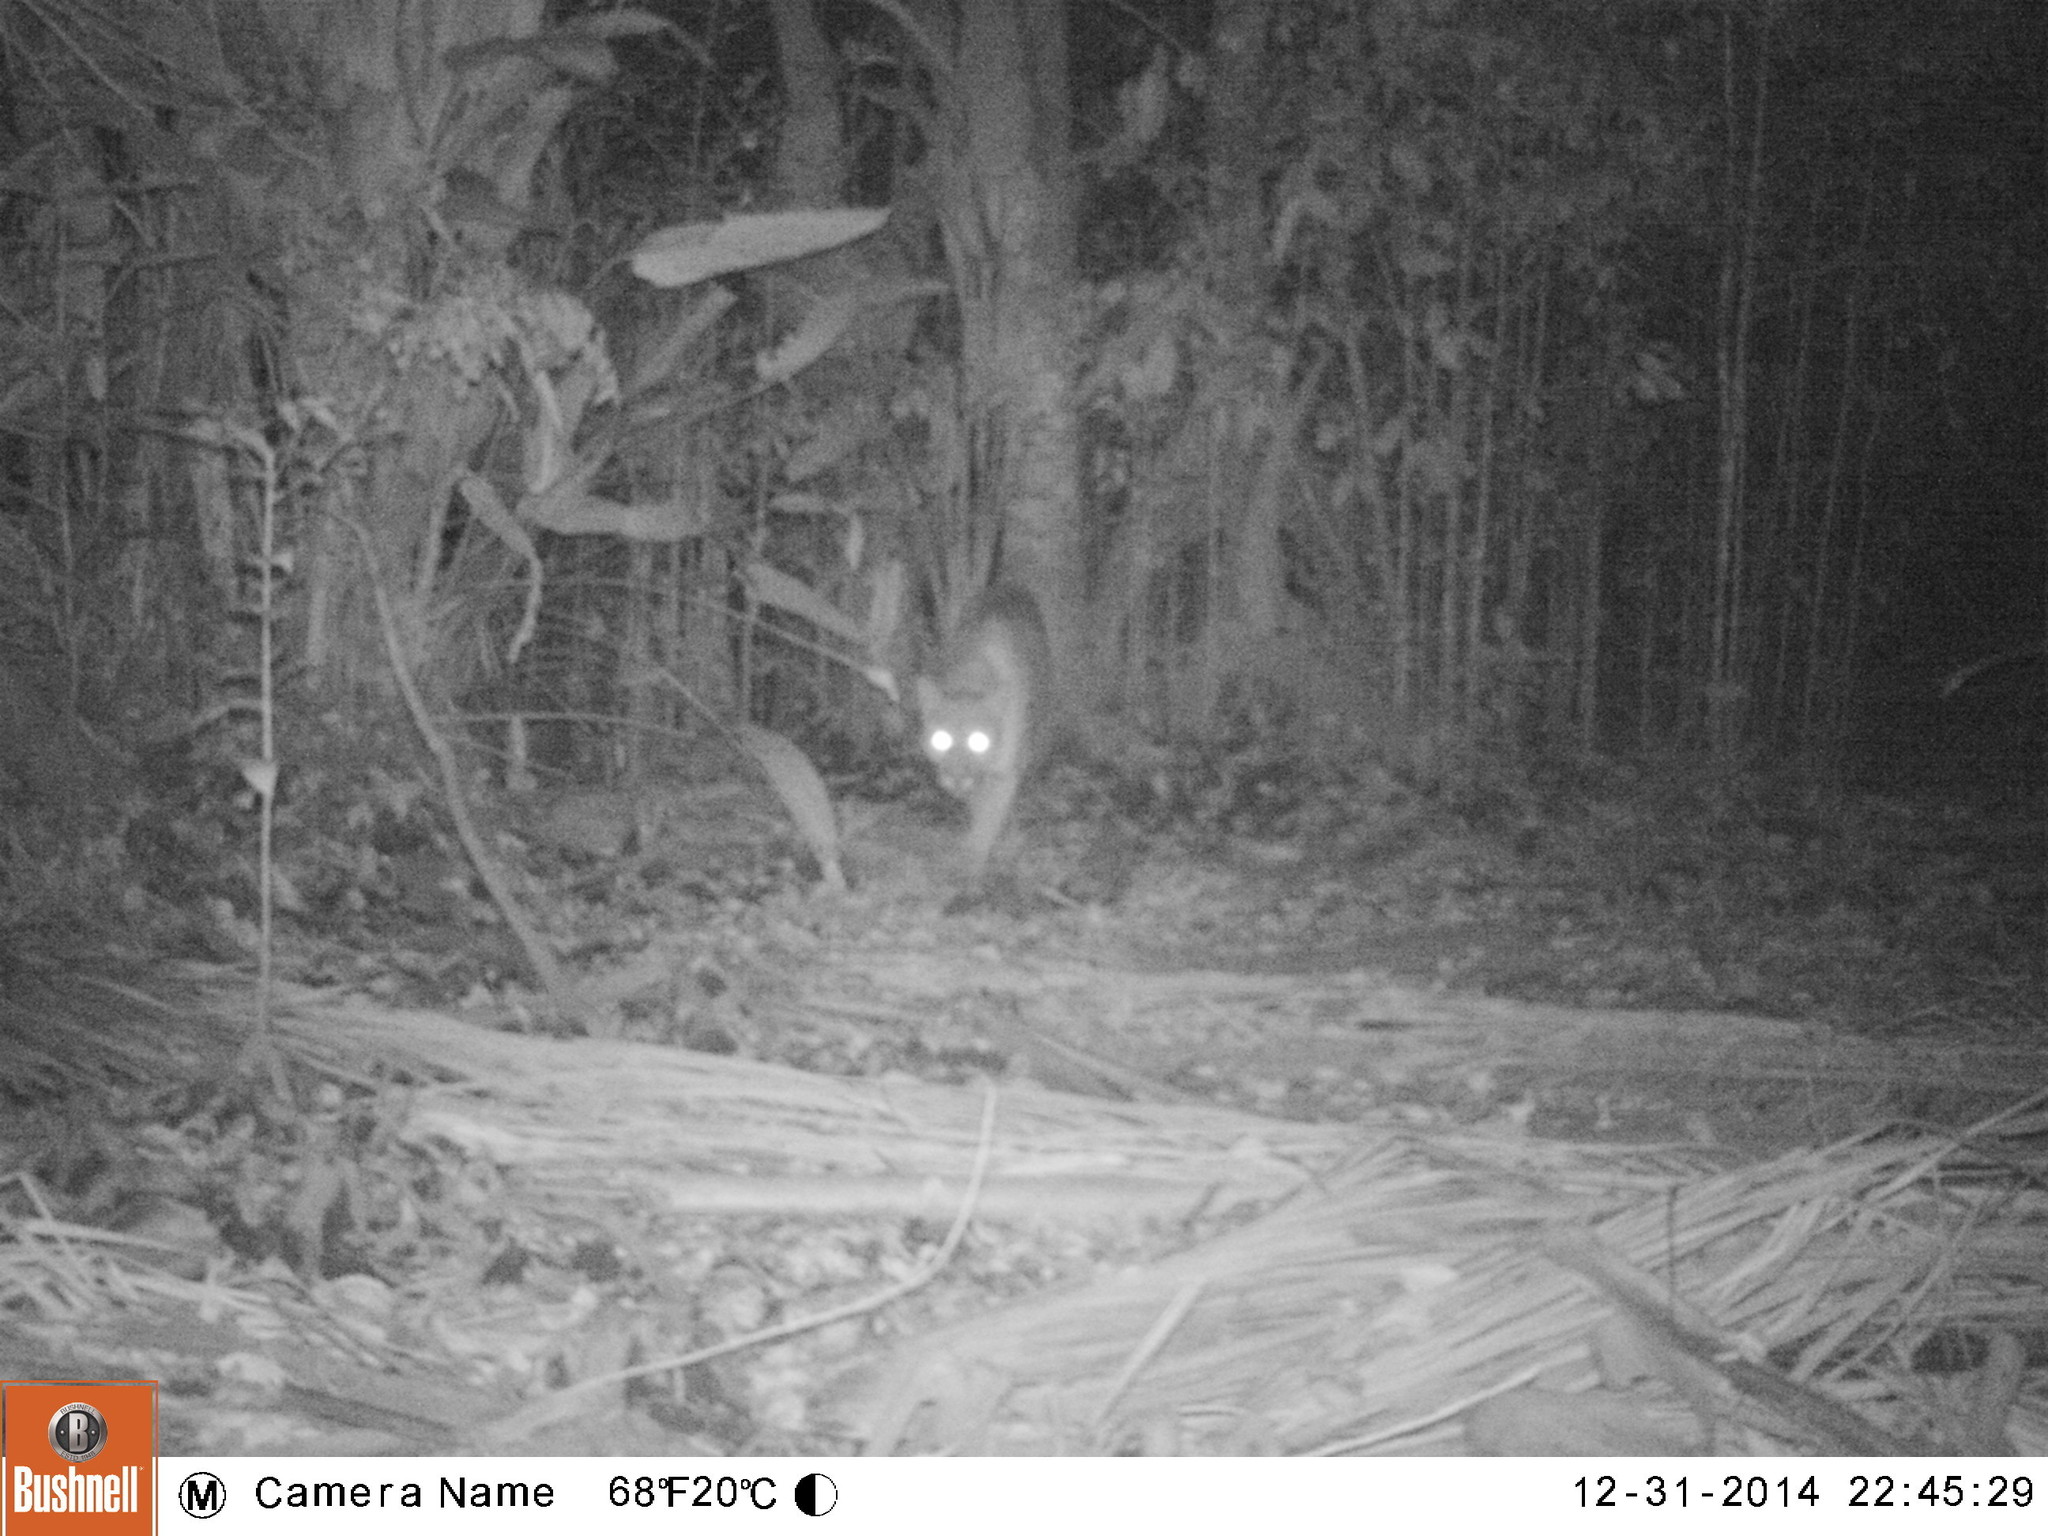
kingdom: Animalia
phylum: Chordata
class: Mammalia
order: Carnivora
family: Felidae
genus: Puma
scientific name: Puma concolor
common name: Puma
